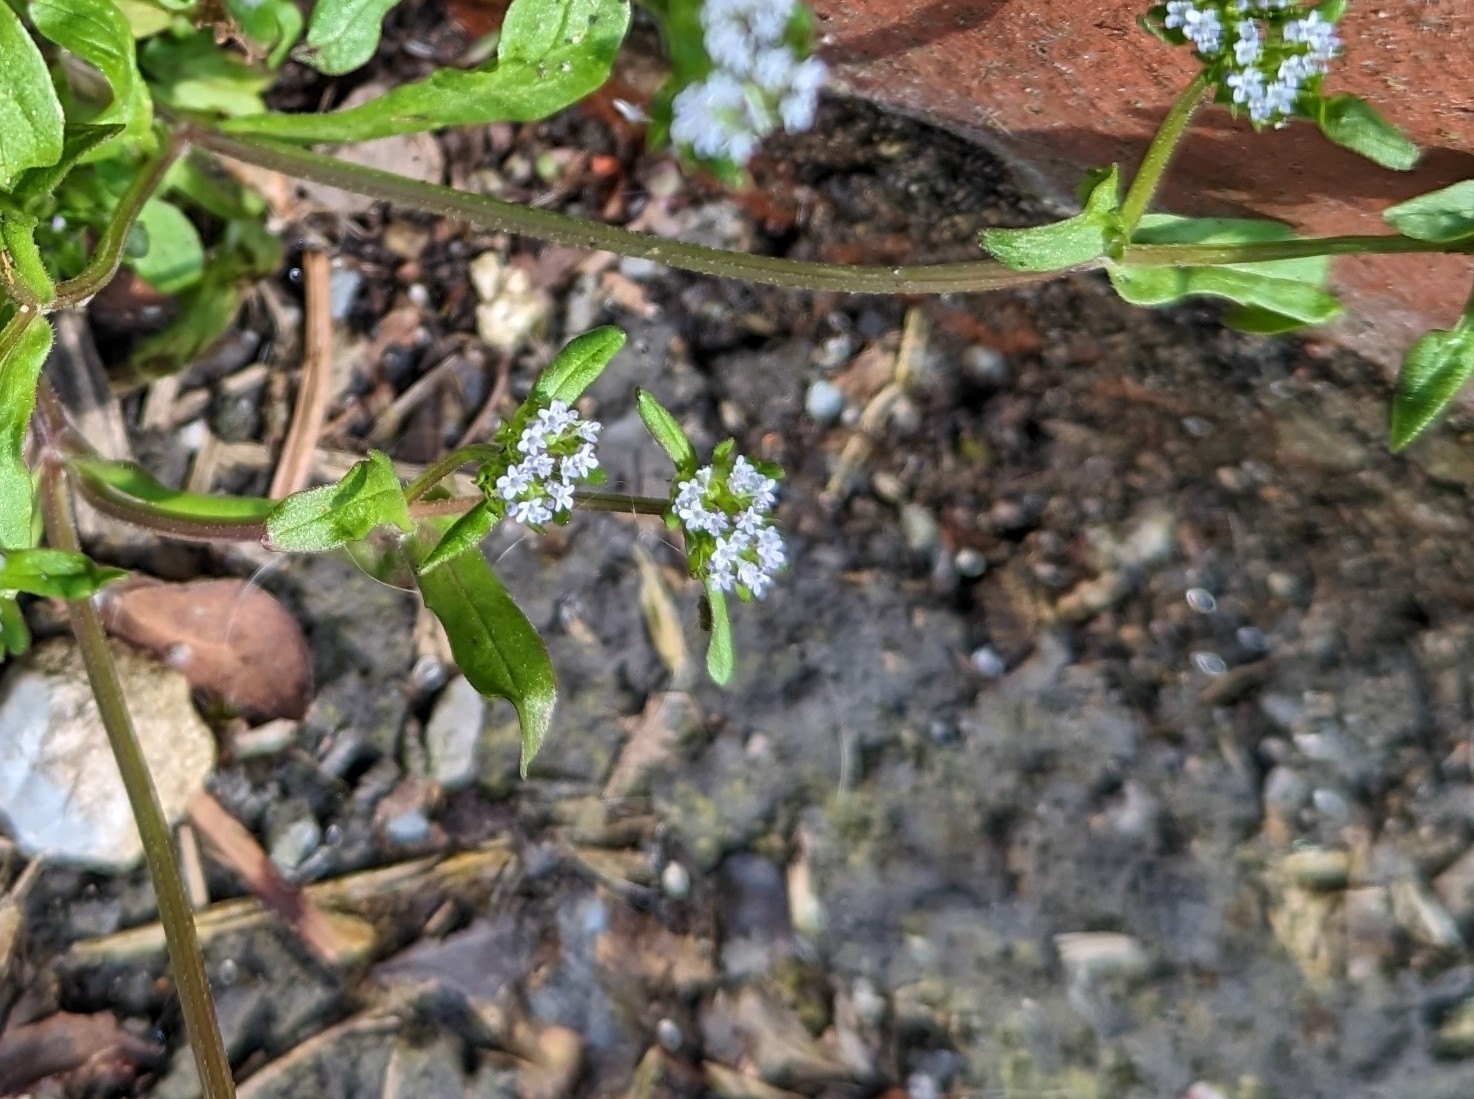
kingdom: Plantae
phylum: Tracheophyta
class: Magnoliopsida
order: Dipsacales
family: Caprifoliaceae
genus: Valerianella
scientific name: Valerianella locusta
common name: Common cornsalad
